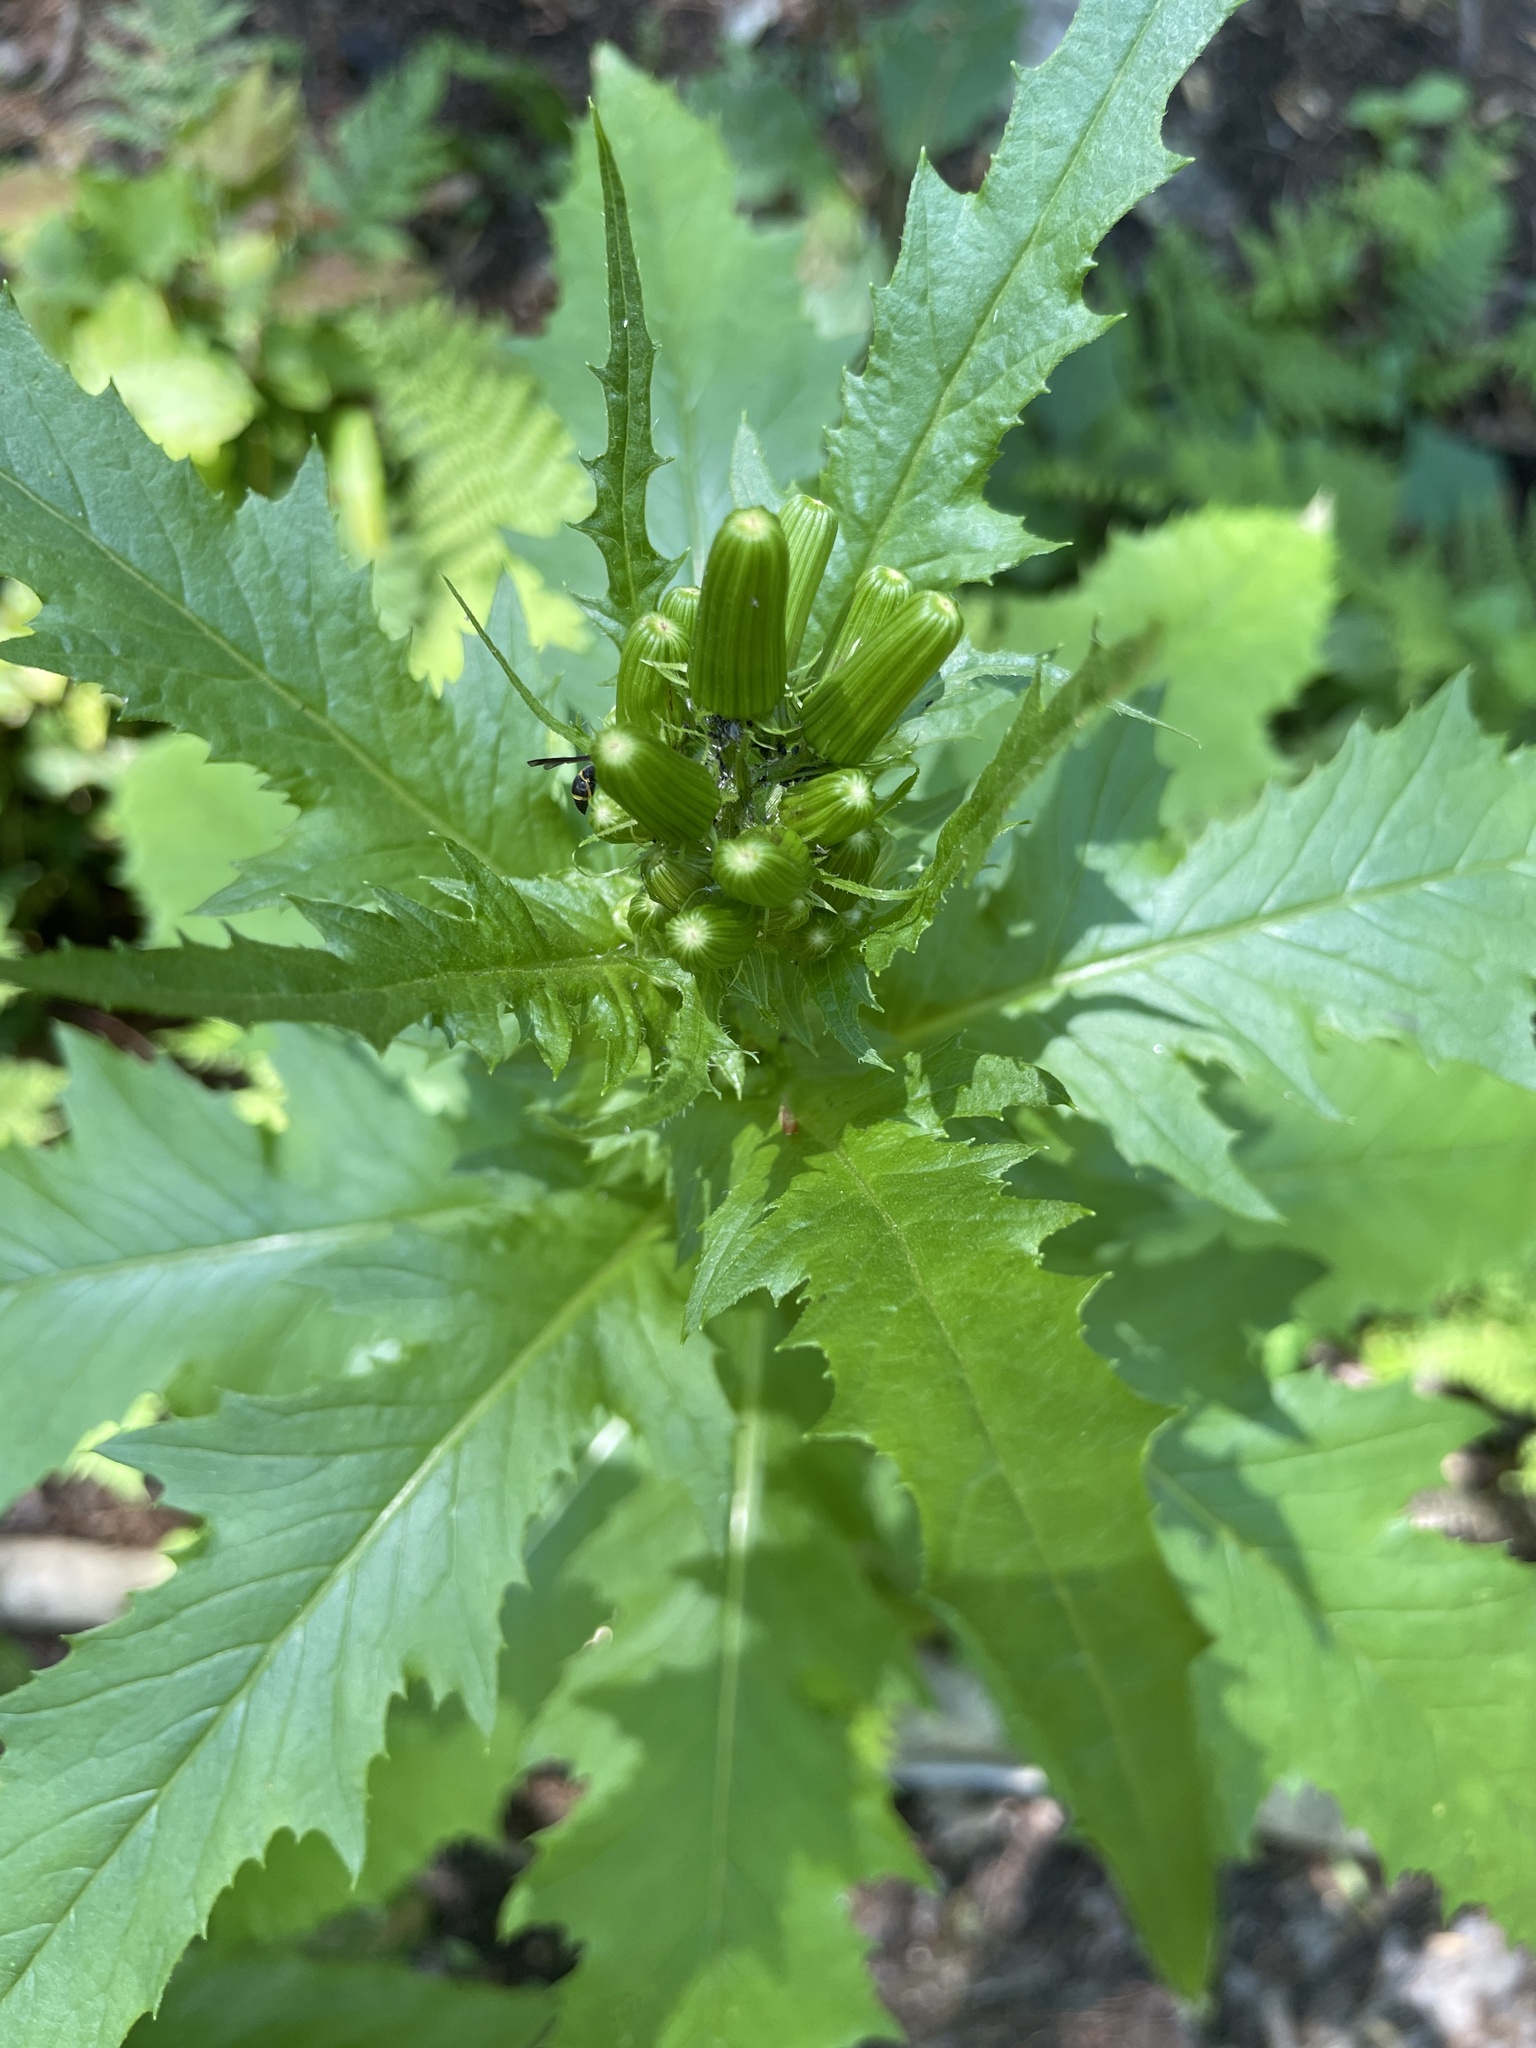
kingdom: Plantae
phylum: Tracheophyta
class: Magnoliopsida
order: Asterales
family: Asteraceae
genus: Erechtites
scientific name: Erechtites hieraciifolius
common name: American burnweed
